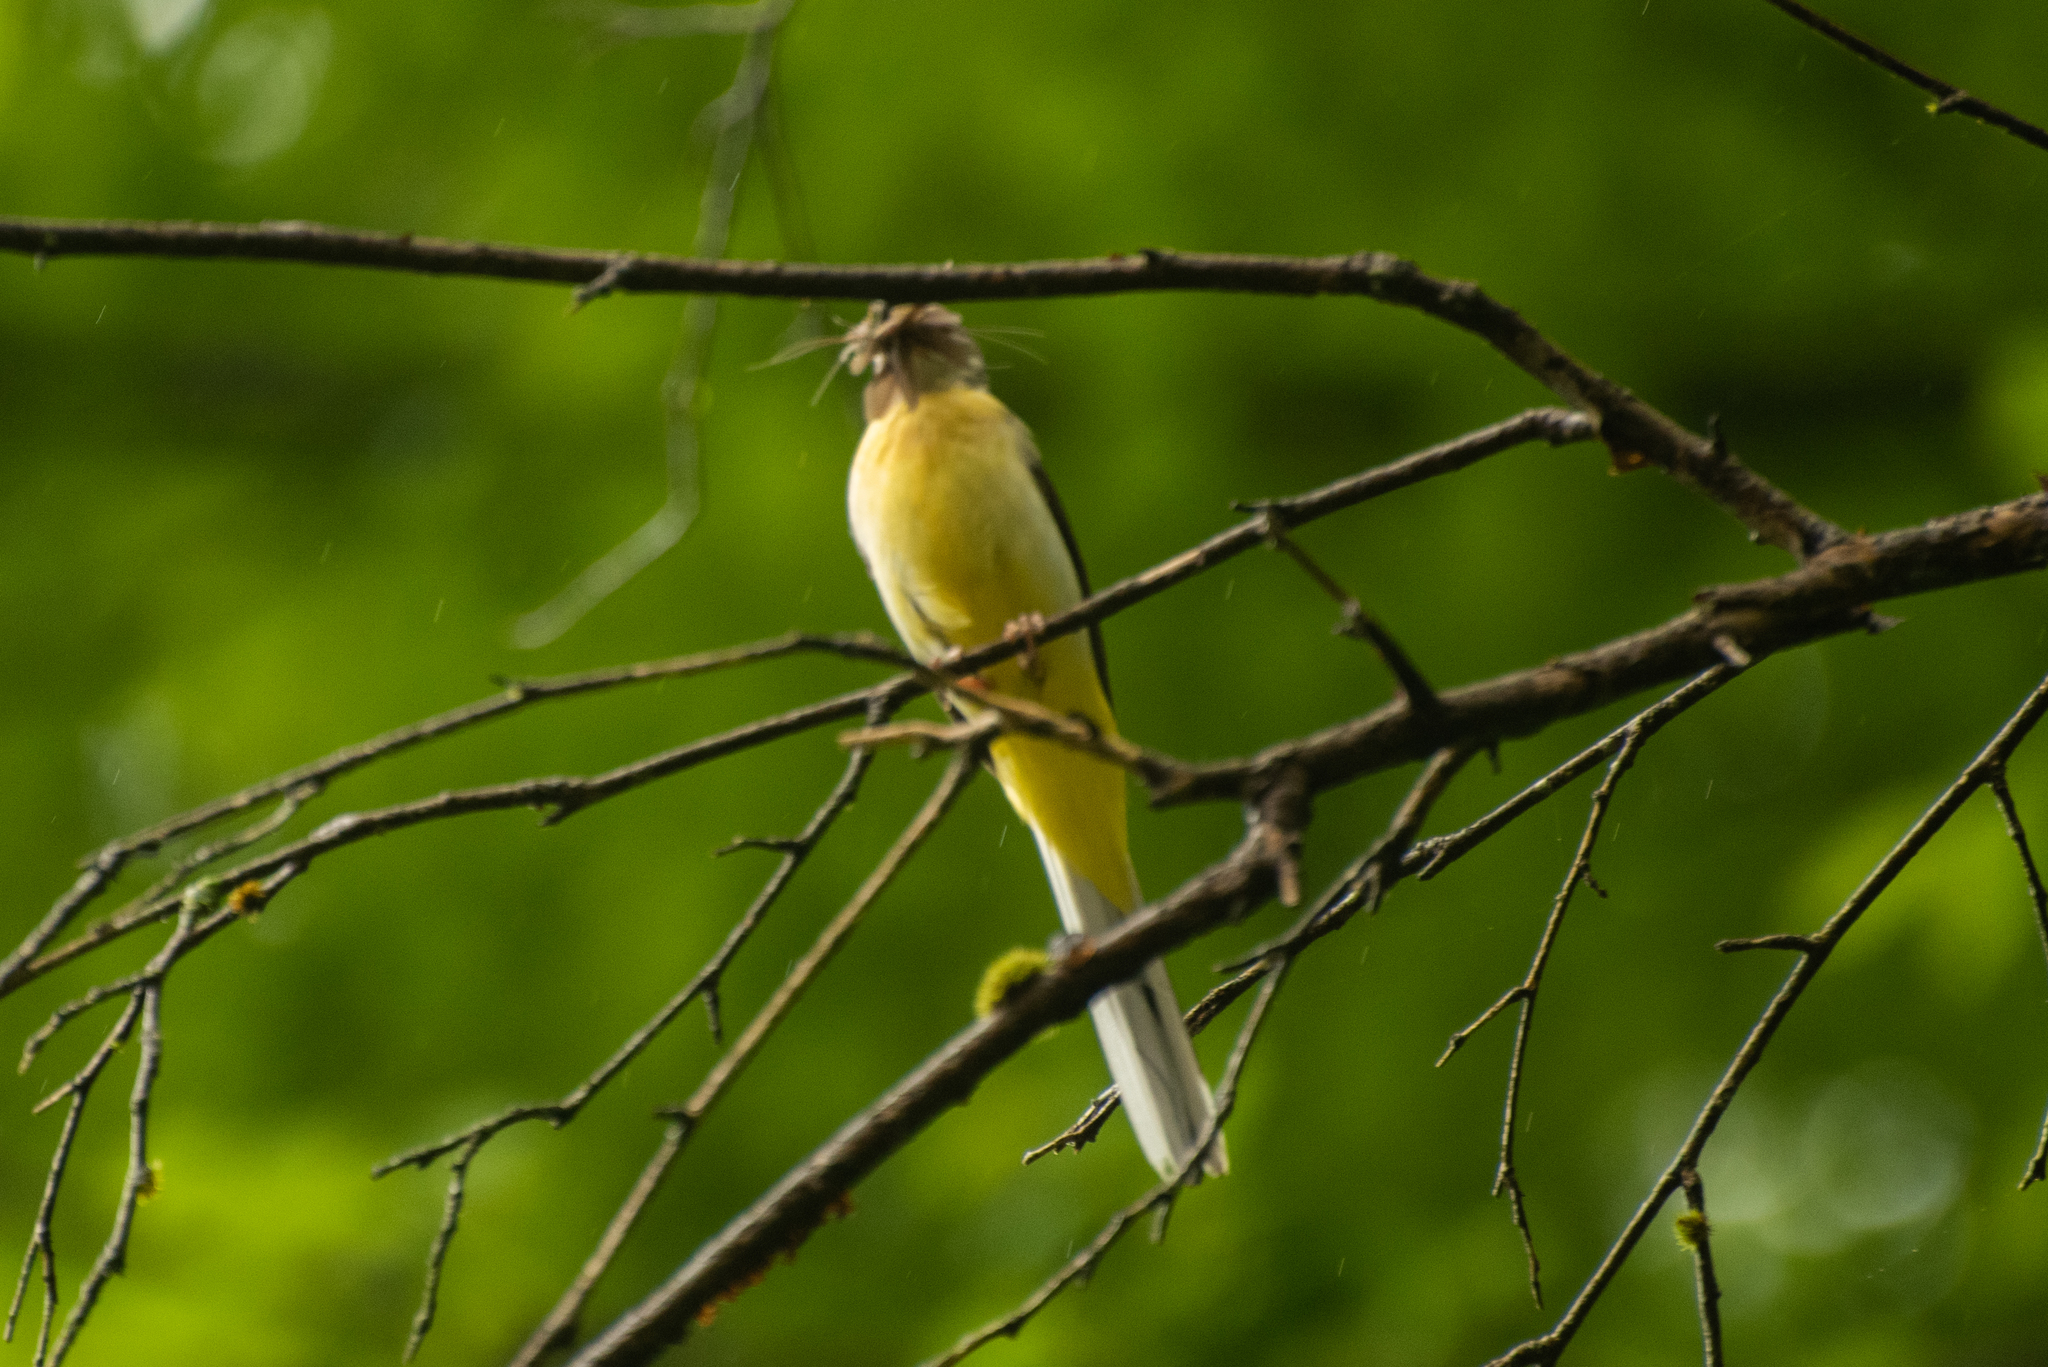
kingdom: Animalia
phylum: Chordata
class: Aves
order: Passeriformes
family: Motacillidae
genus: Motacilla
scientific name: Motacilla cinerea
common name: Grey wagtail
